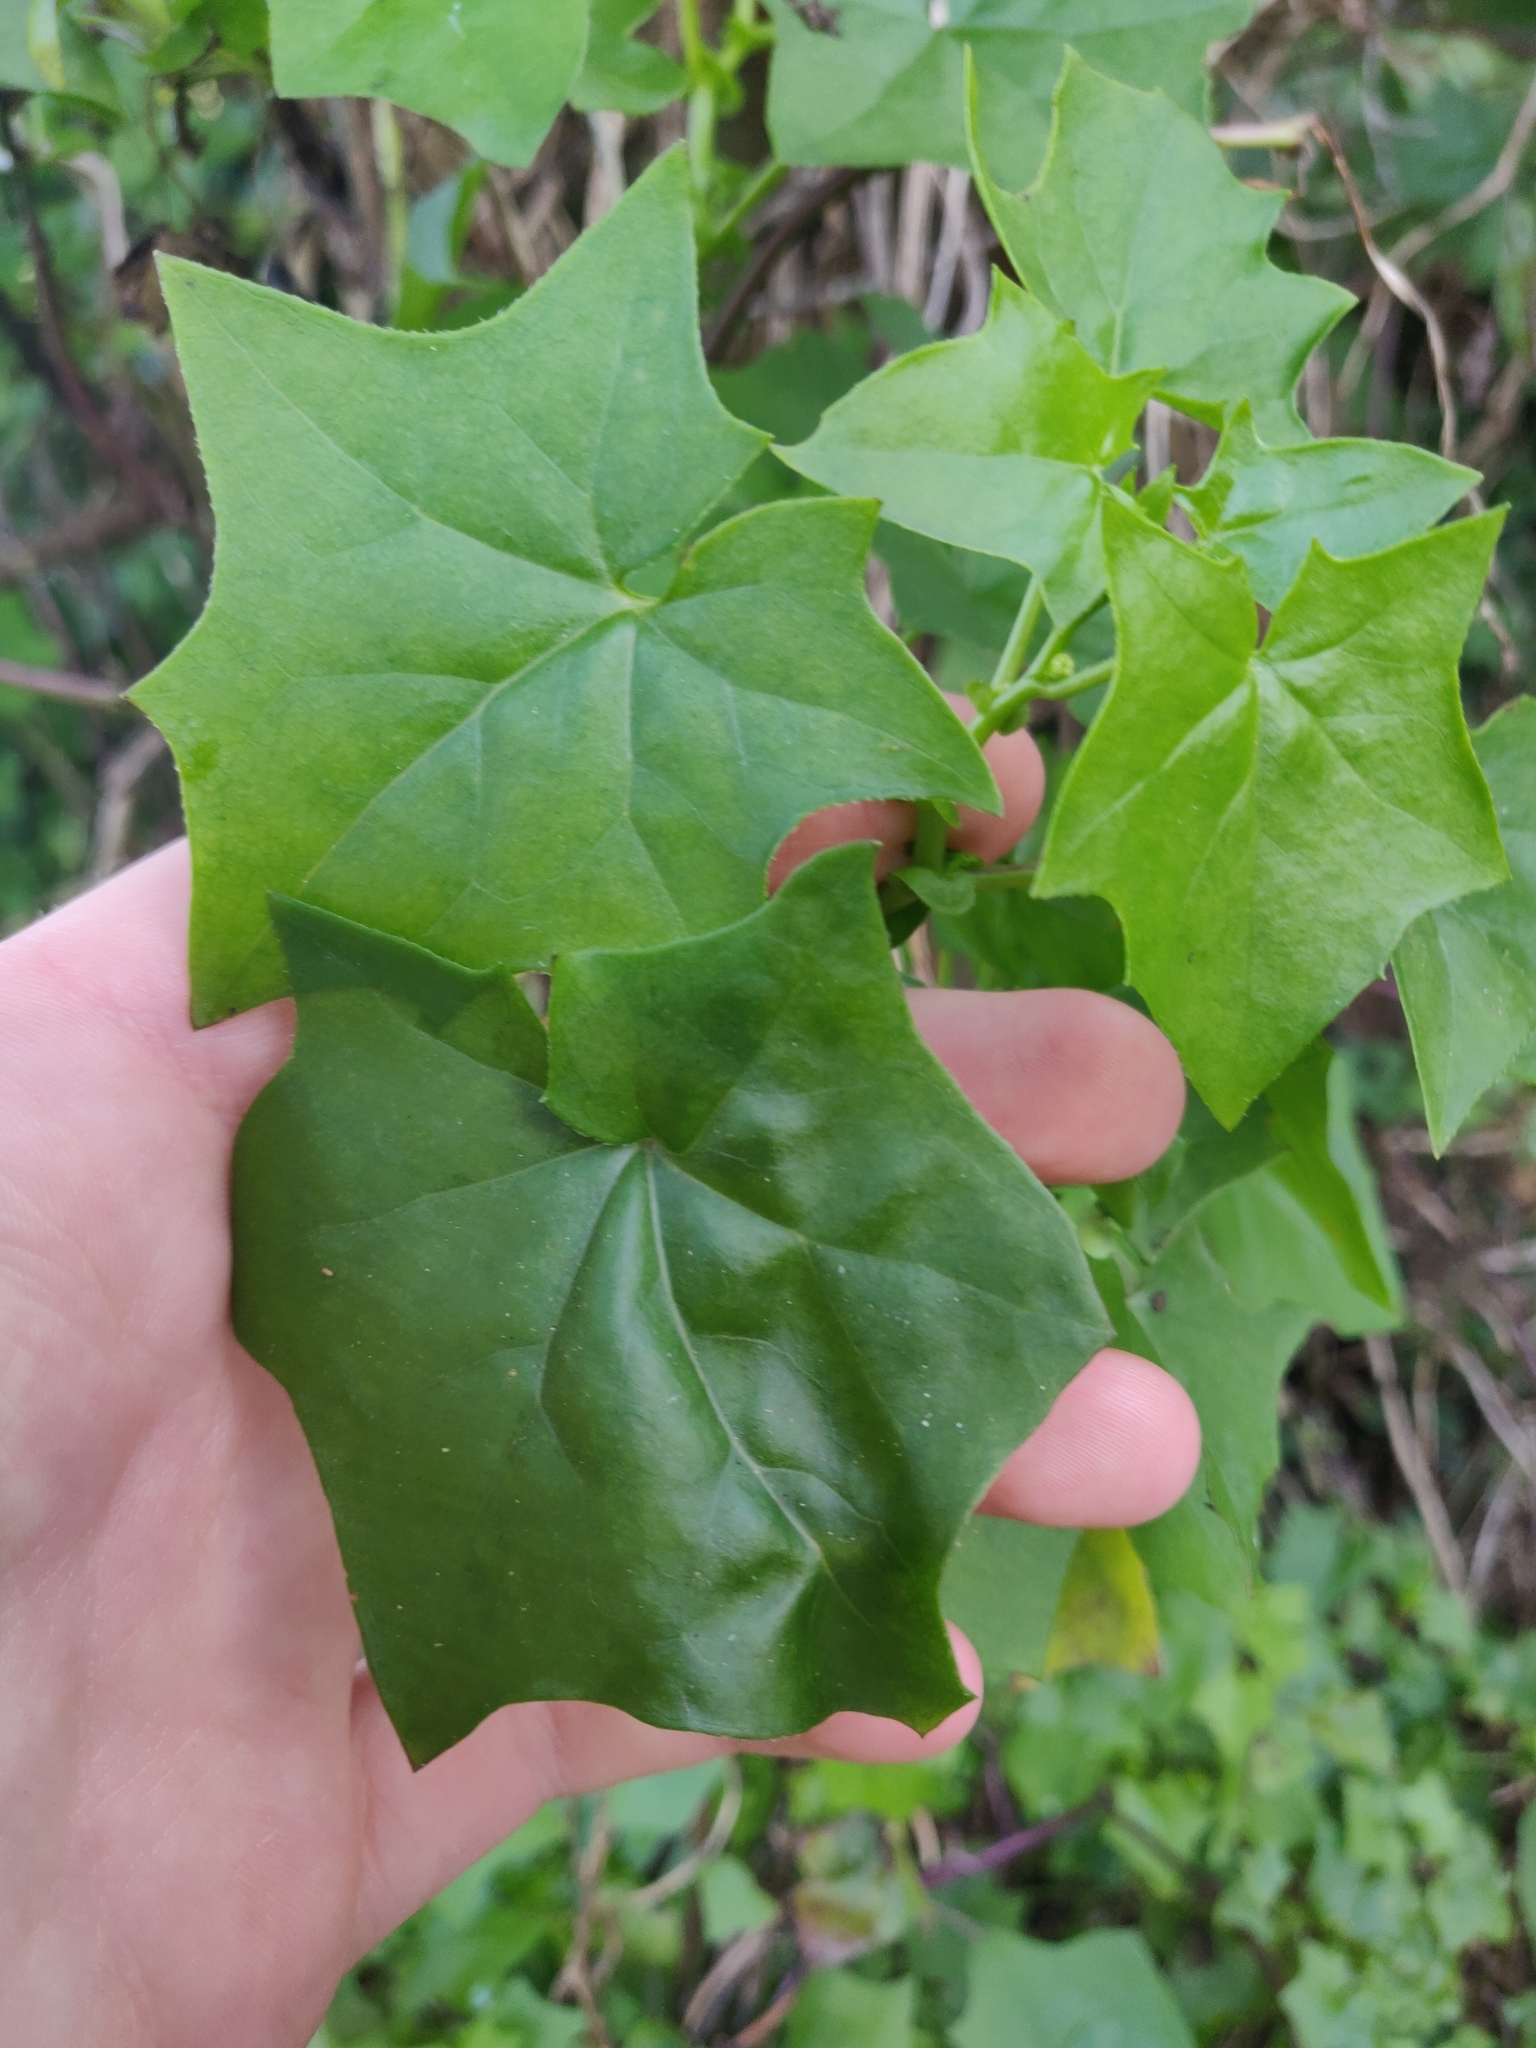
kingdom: Plantae
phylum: Tracheophyta
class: Magnoliopsida
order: Asterales
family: Asteraceae
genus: Delairea
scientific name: Delairea odorata
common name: Cape-ivy
